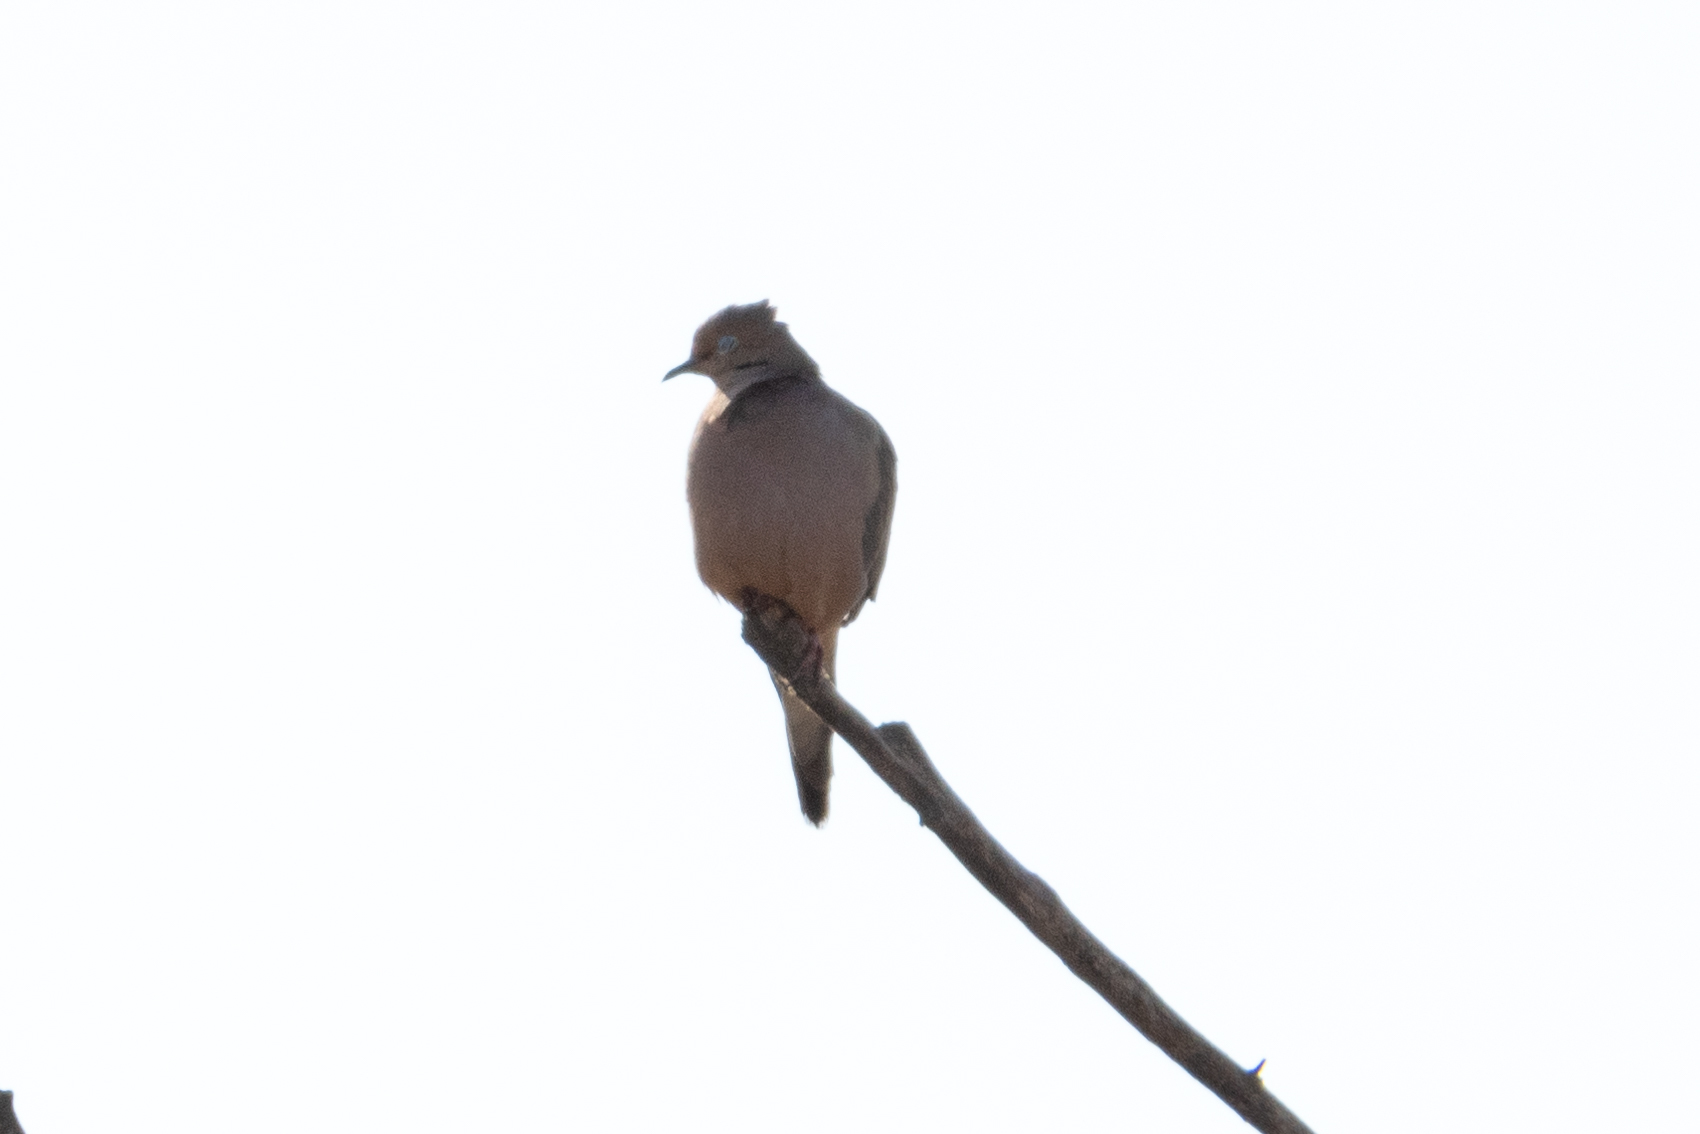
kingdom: Animalia
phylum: Chordata
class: Aves
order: Columbiformes
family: Columbidae
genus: Zenaida
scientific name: Zenaida macroura
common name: Mourning dove
